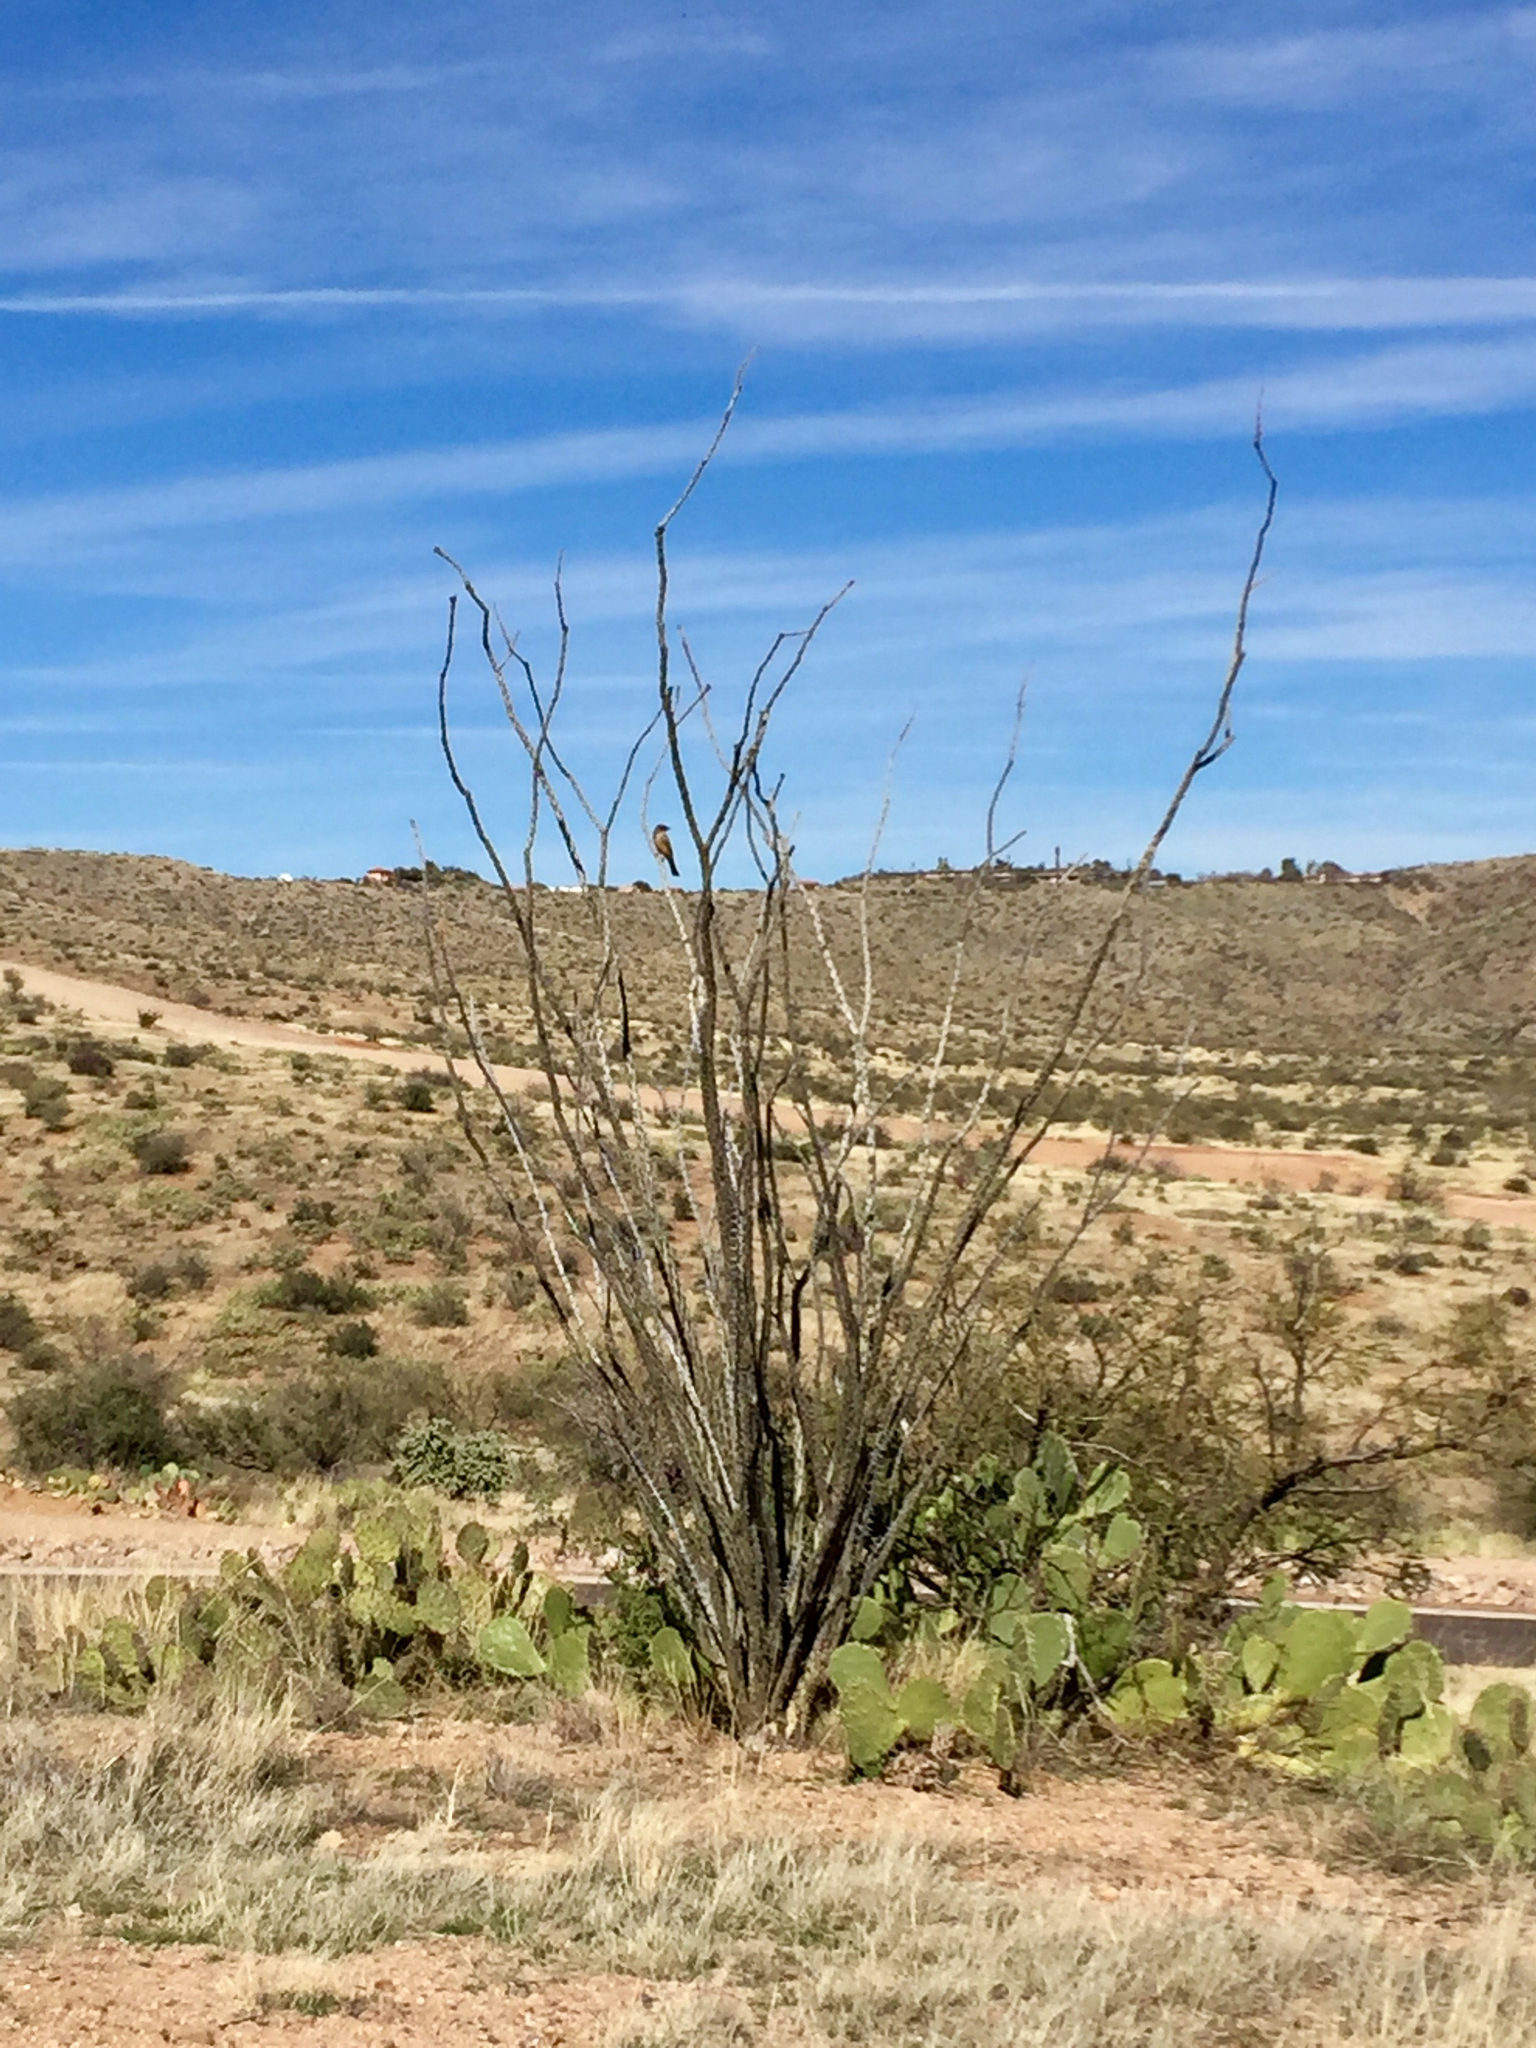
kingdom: Plantae
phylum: Tracheophyta
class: Magnoliopsida
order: Ericales
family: Fouquieriaceae
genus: Fouquieria
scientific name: Fouquieria splendens
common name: Vine-cactus
